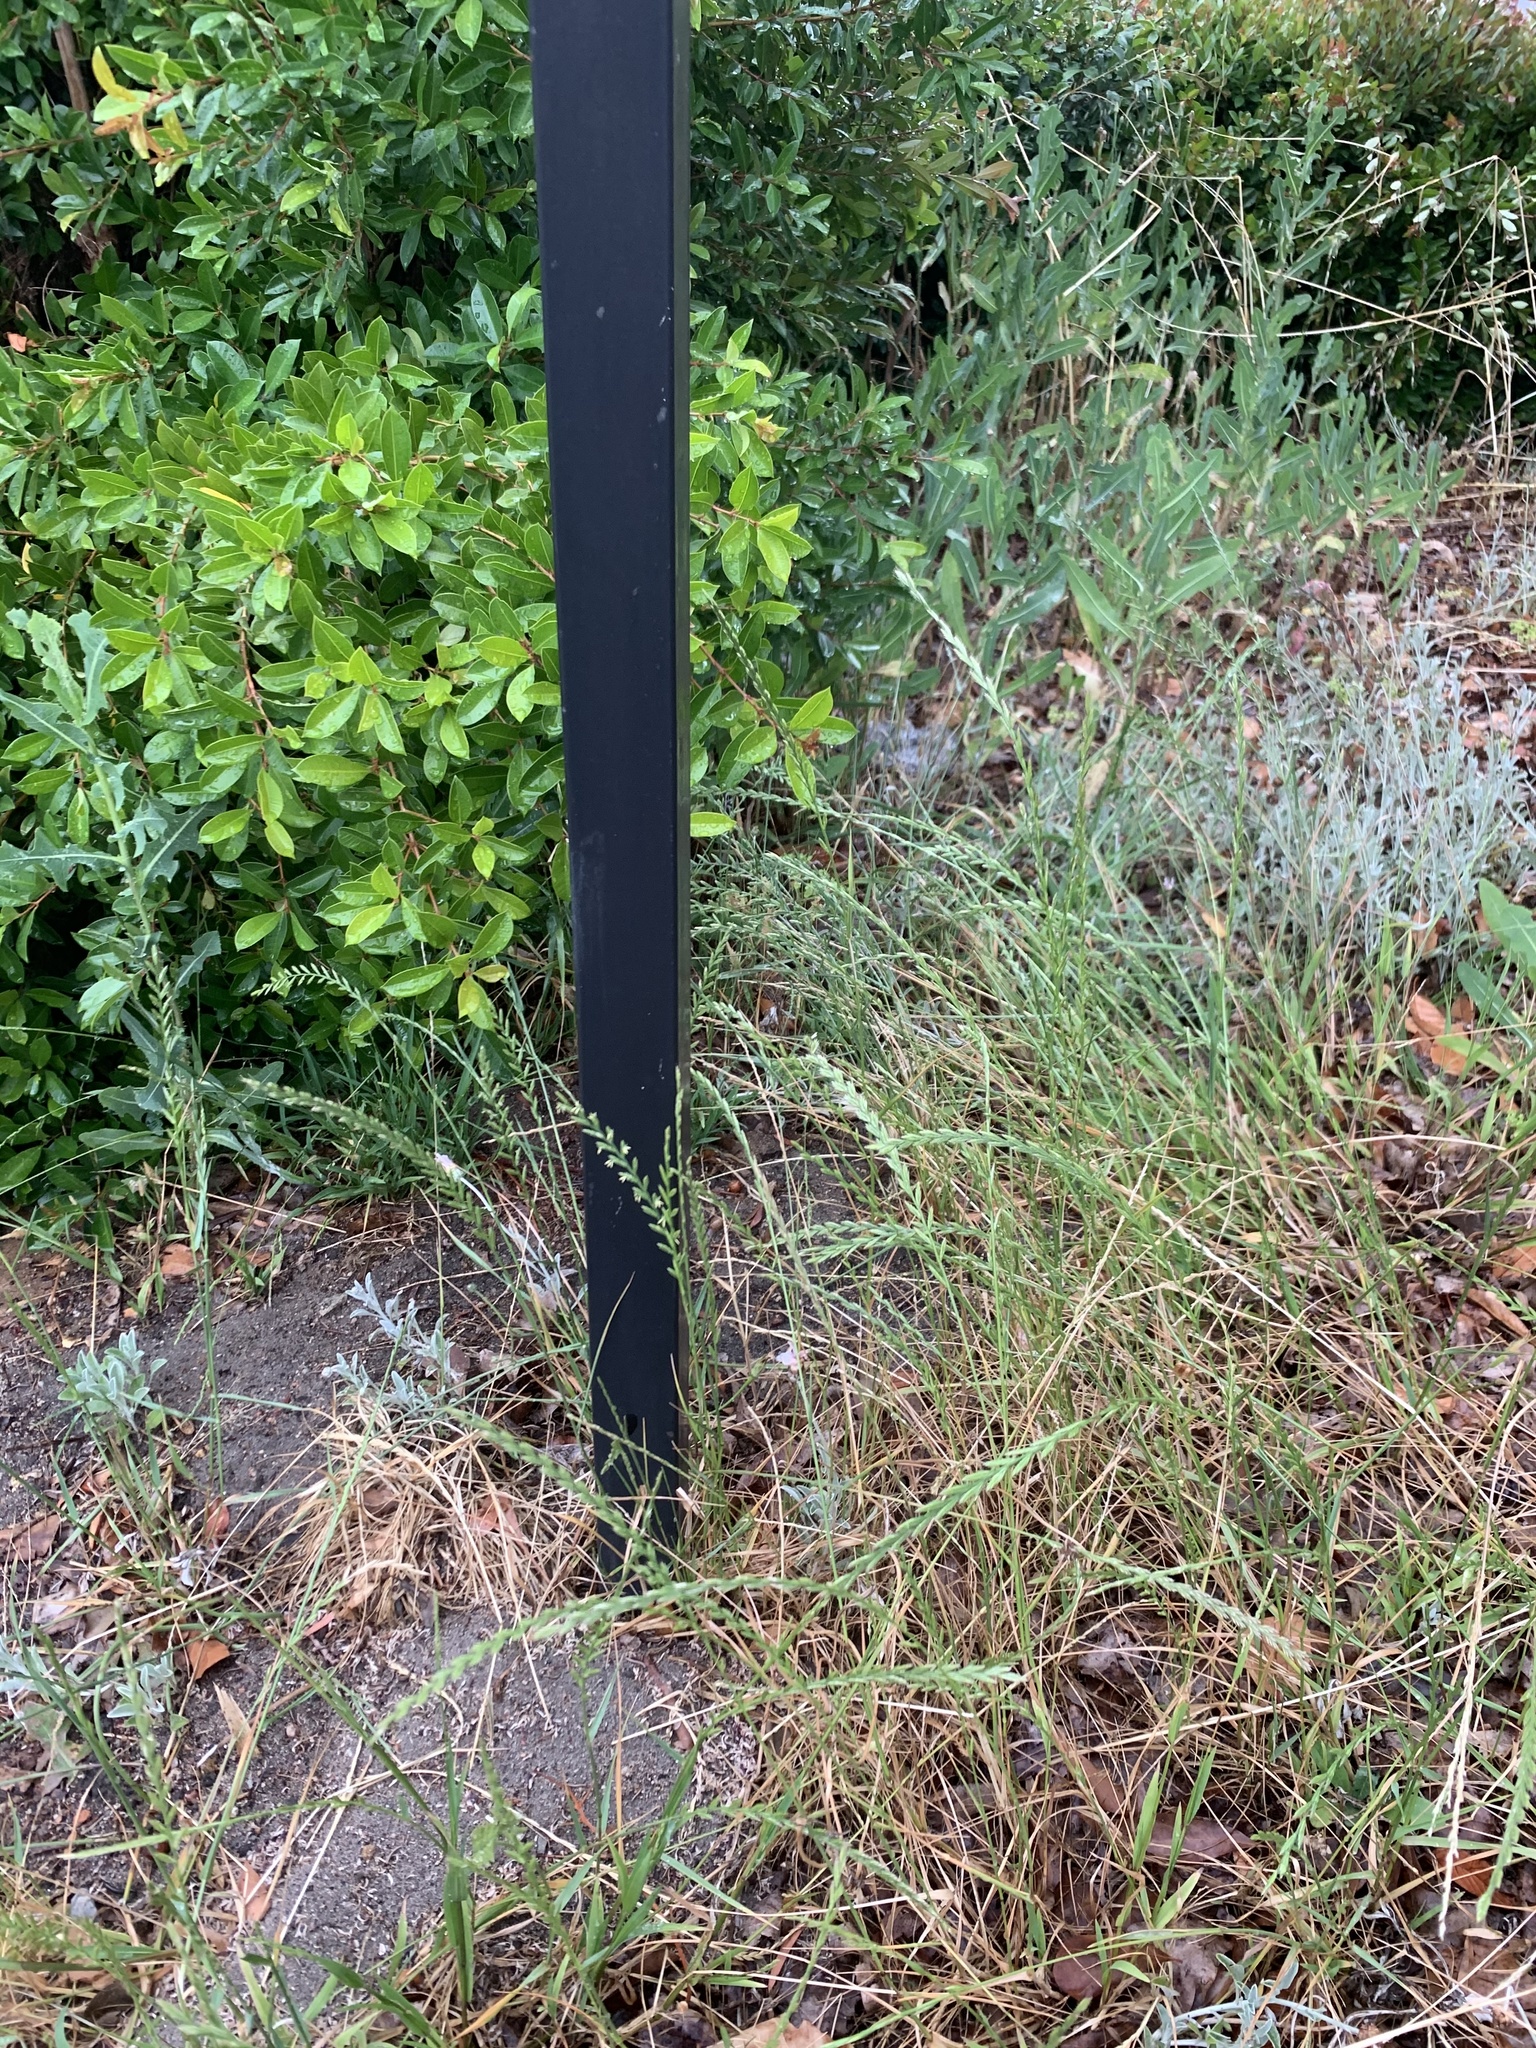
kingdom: Plantae
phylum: Tracheophyta
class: Liliopsida
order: Poales
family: Poaceae
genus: Lolium
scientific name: Lolium multiflorum
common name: Annual ryegrass
